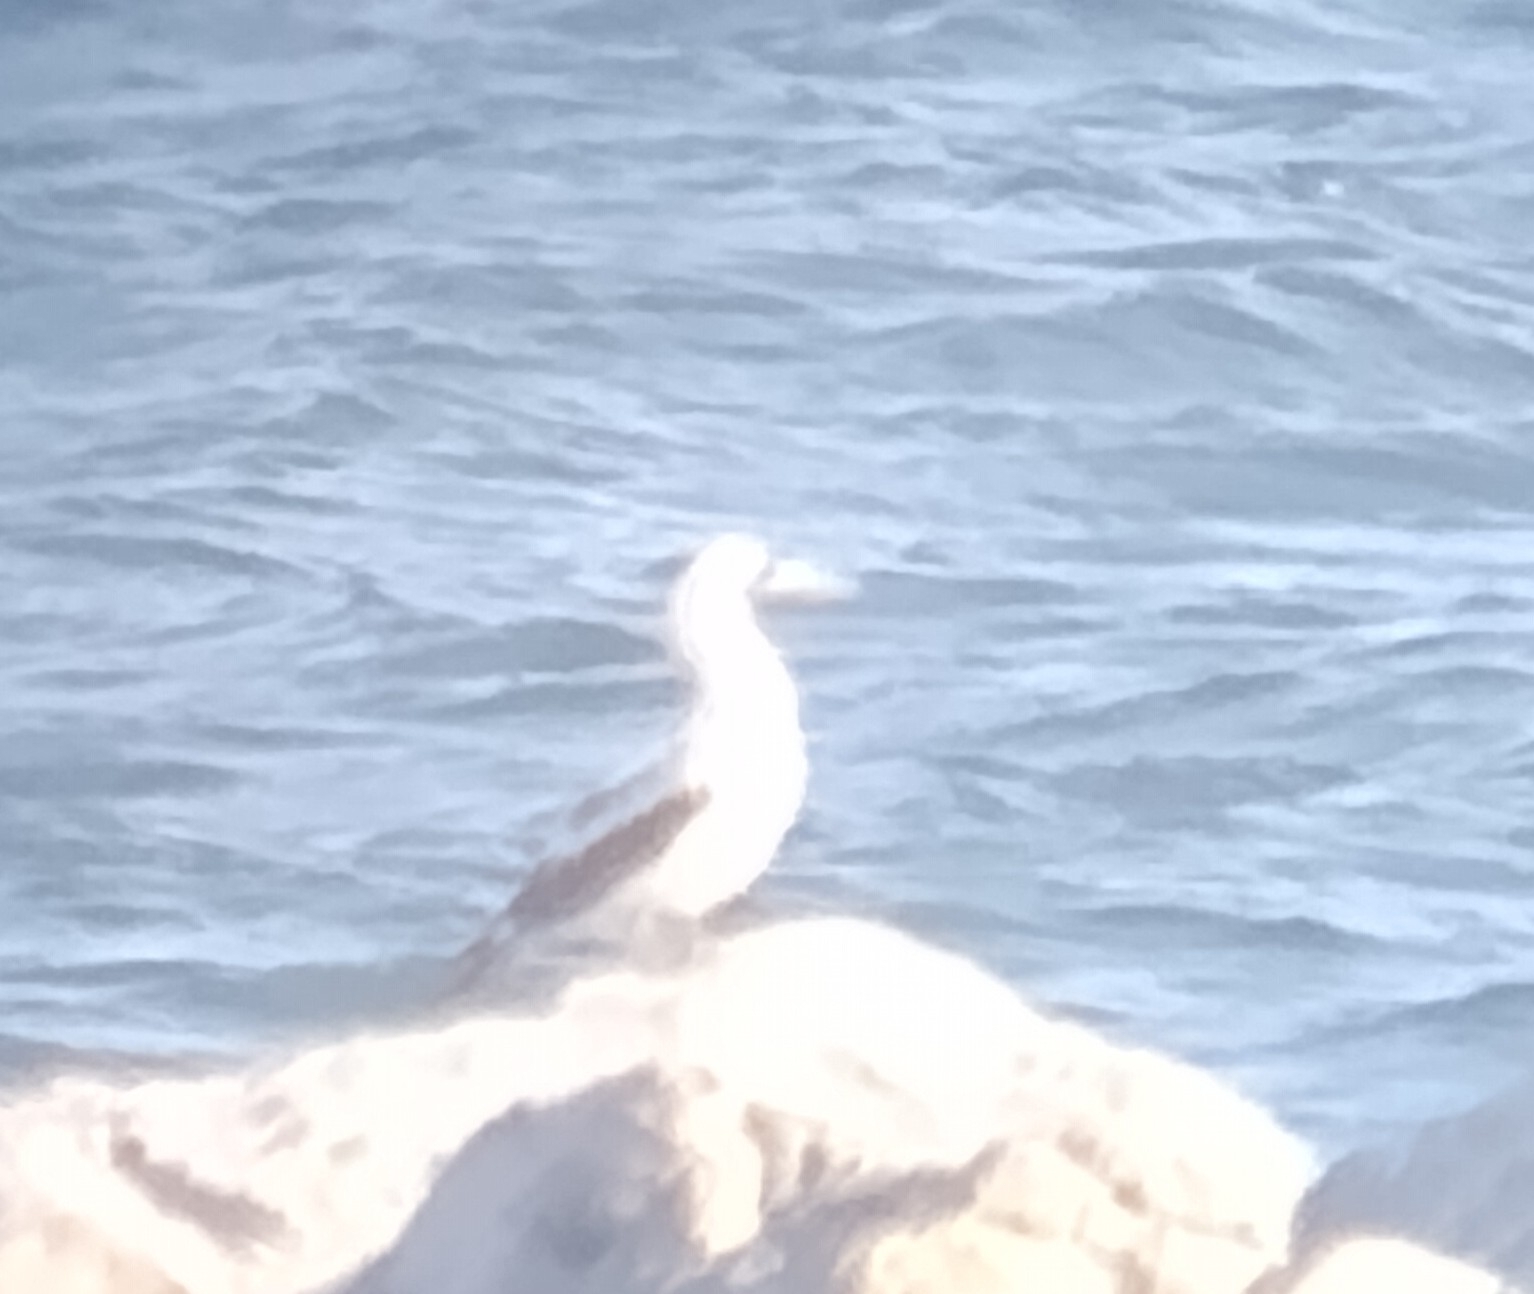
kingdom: Animalia
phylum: Chordata
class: Aves
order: Suliformes
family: Sulidae
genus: Sula
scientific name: Sula dactylatra
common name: Masked booby
